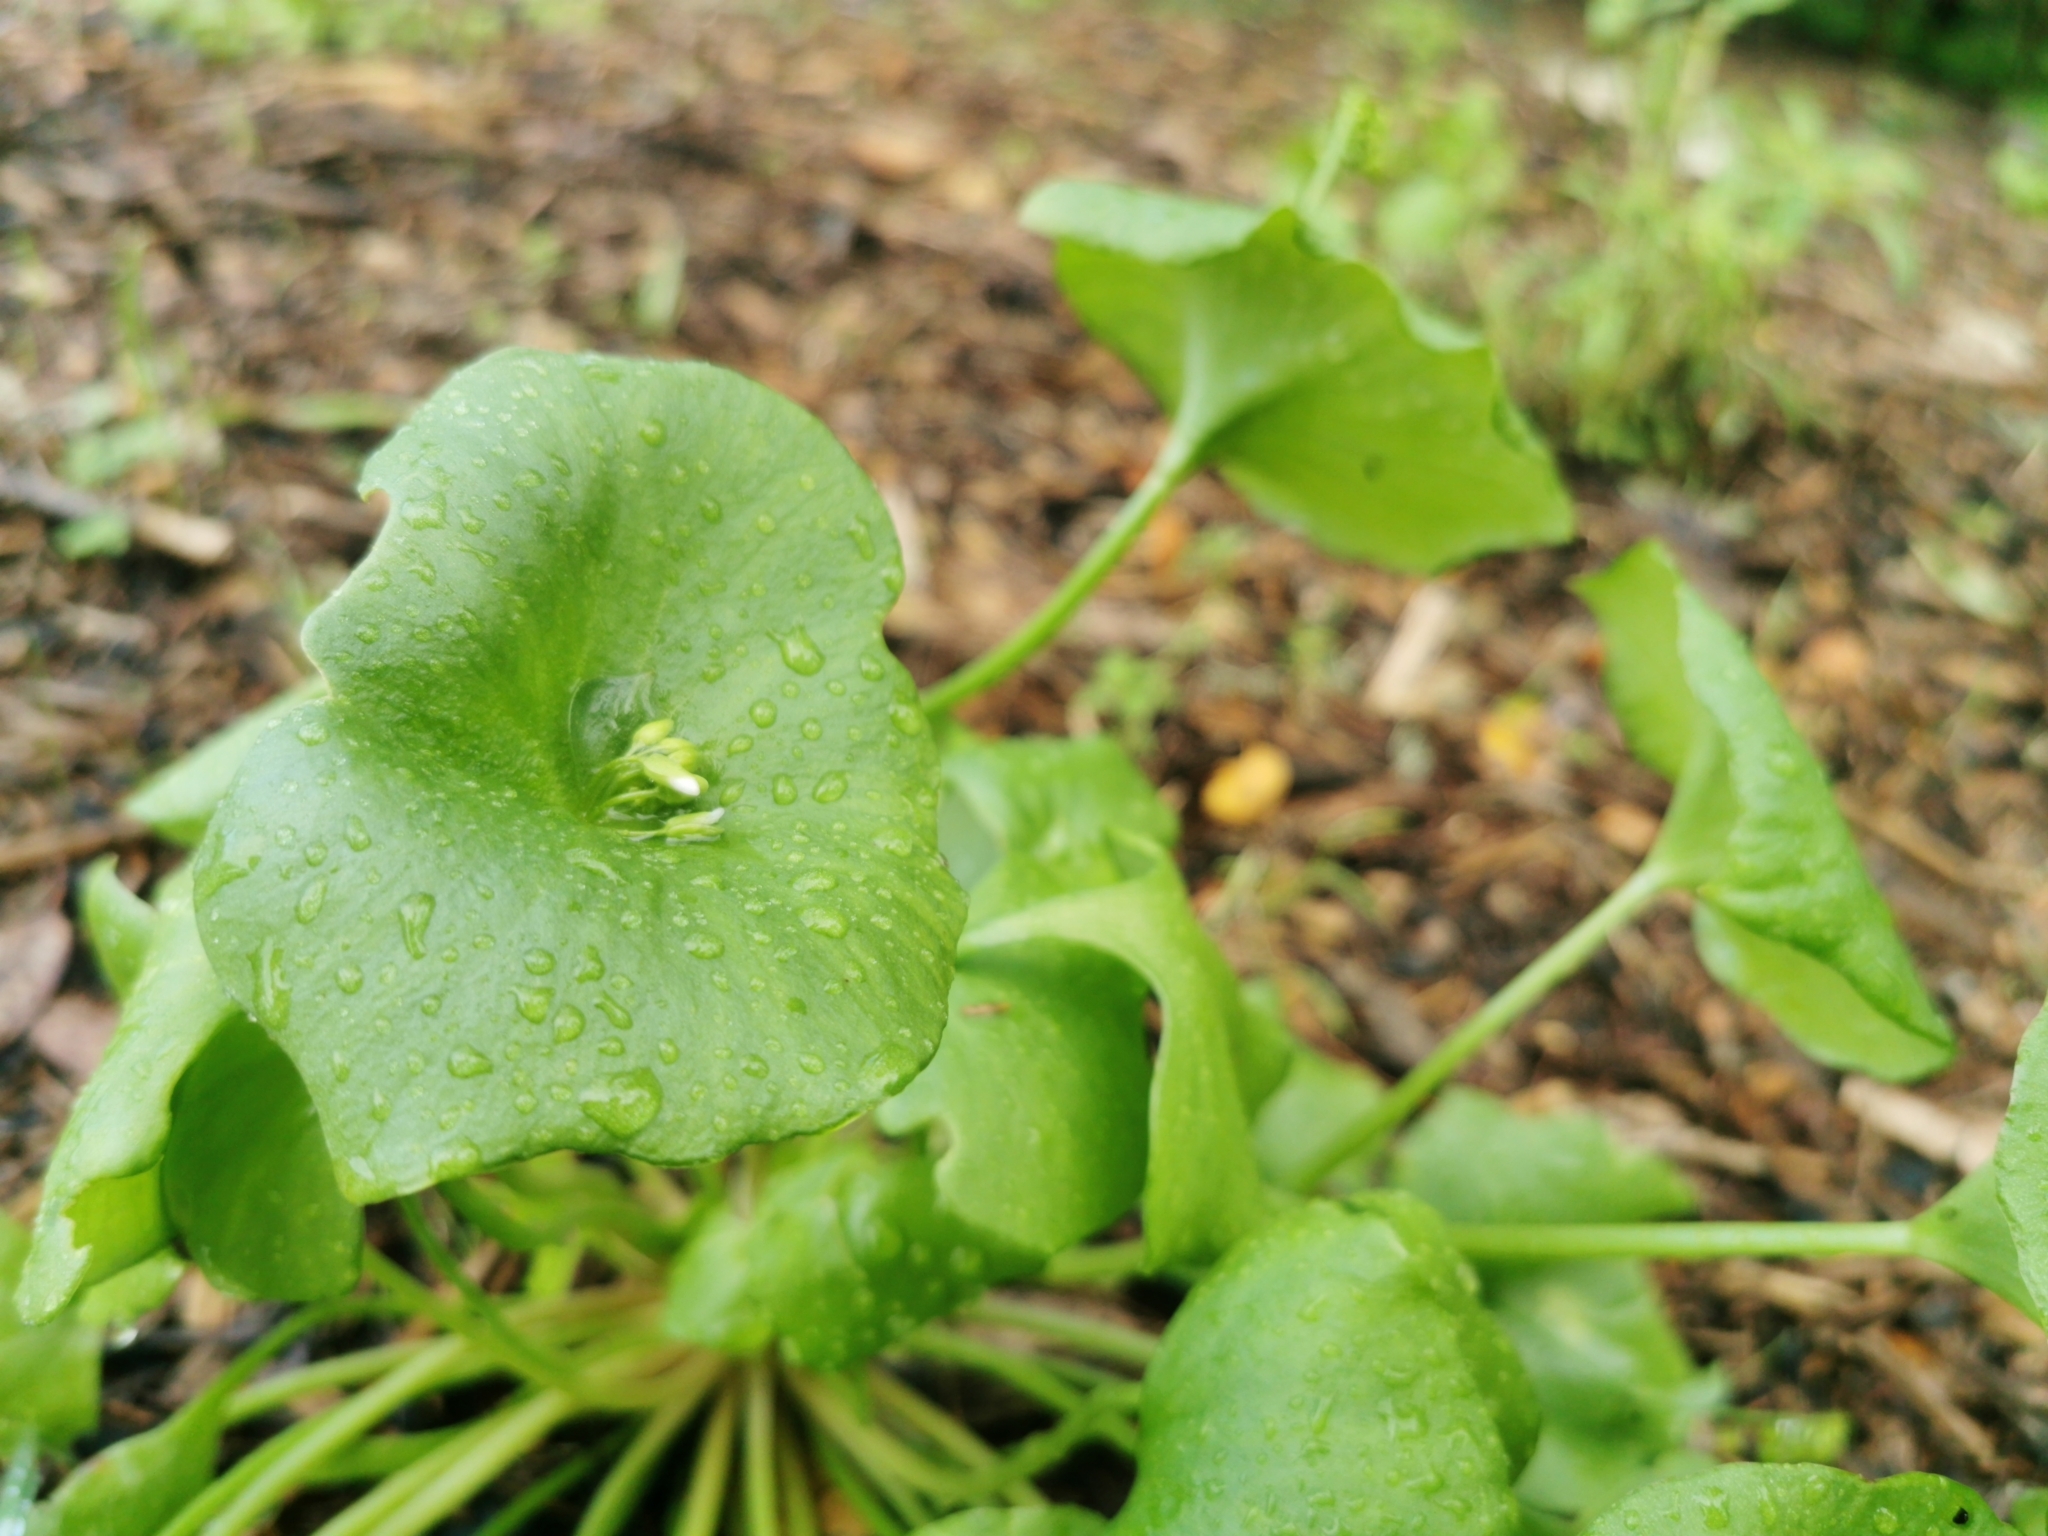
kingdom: Plantae
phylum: Tracheophyta
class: Magnoliopsida
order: Caryophyllales
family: Montiaceae
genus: Claytonia
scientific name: Claytonia perfoliata
